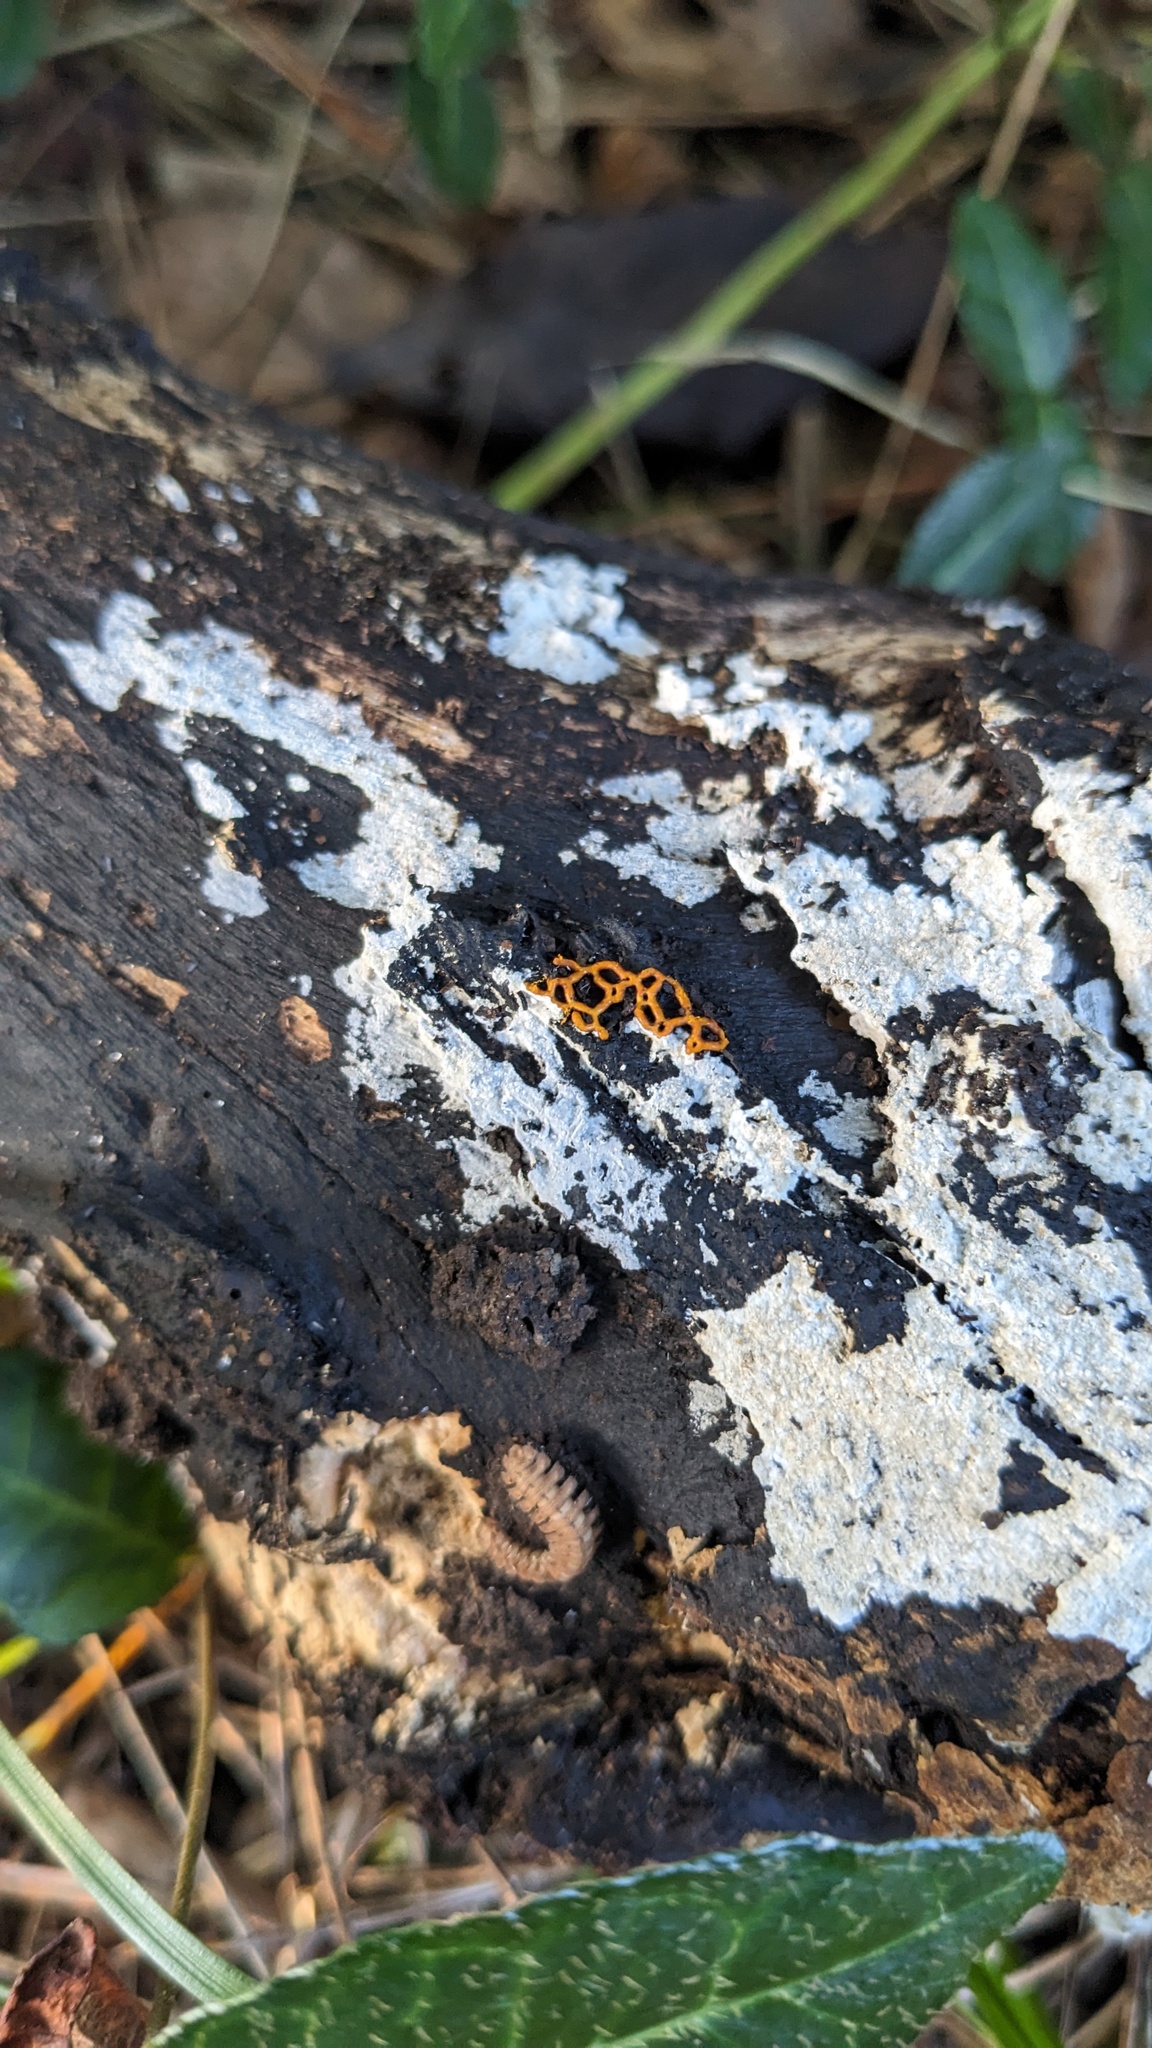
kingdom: Protozoa
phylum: Mycetozoa
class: Myxomycetes
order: Trichiales
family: Arcyriaceae
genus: Hemitrichia
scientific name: Hemitrichia serpula
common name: Pretzel slime mold
